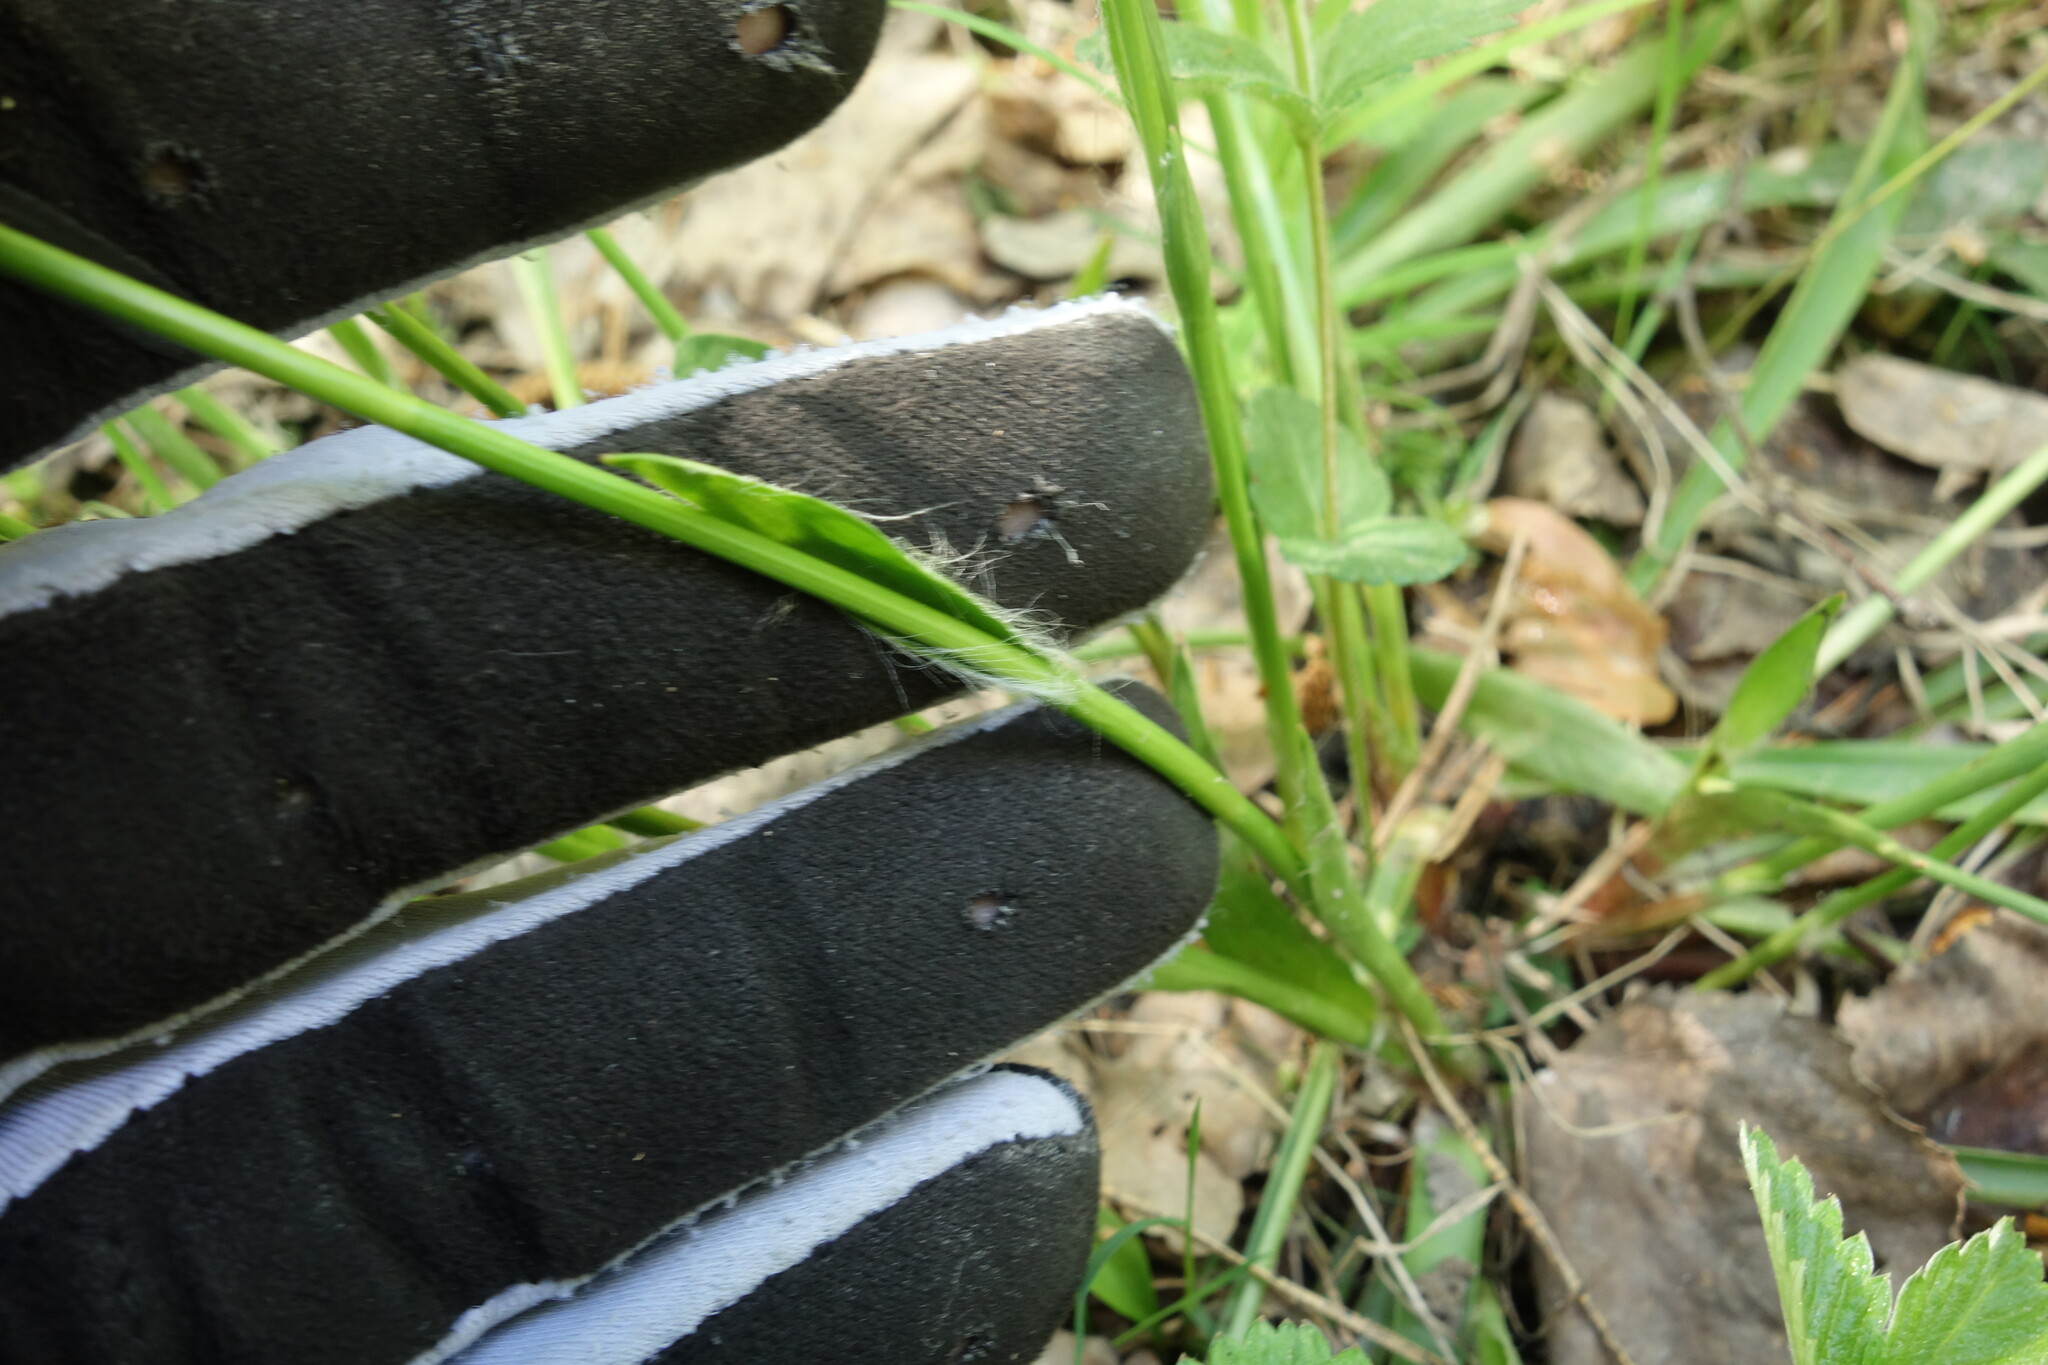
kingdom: Plantae
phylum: Tracheophyta
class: Liliopsida
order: Poales
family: Juncaceae
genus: Luzula
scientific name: Luzula pilosa
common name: Hairy wood-rush
